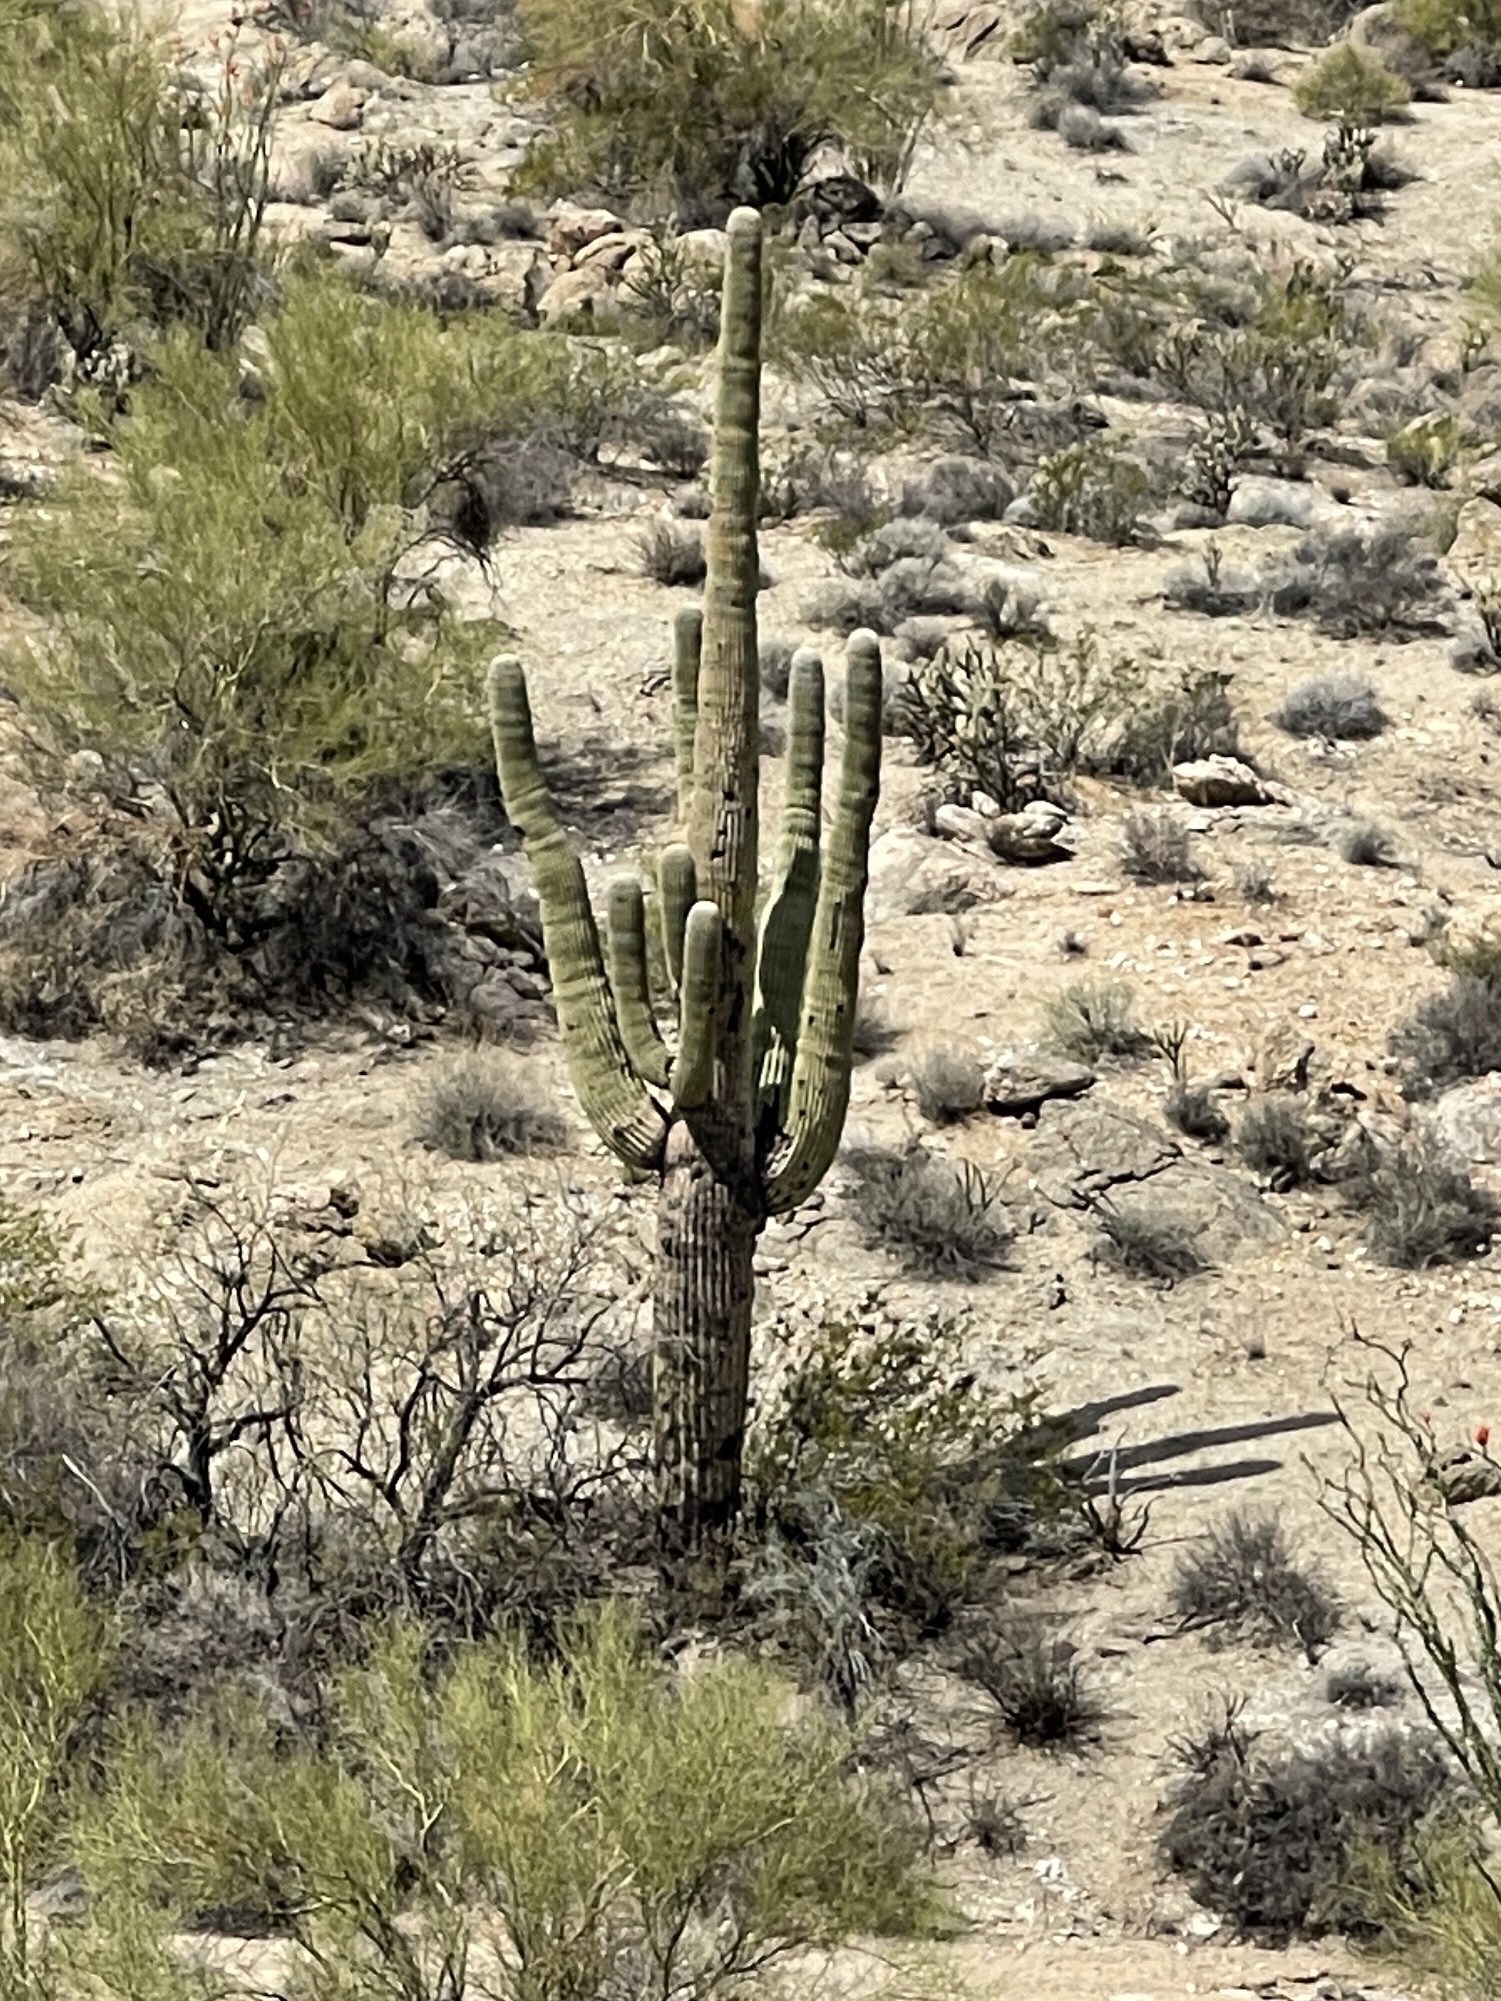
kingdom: Plantae
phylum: Tracheophyta
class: Magnoliopsida
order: Caryophyllales
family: Cactaceae
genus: Carnegiea
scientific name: Carnegiea gigantea
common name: Saguaro
